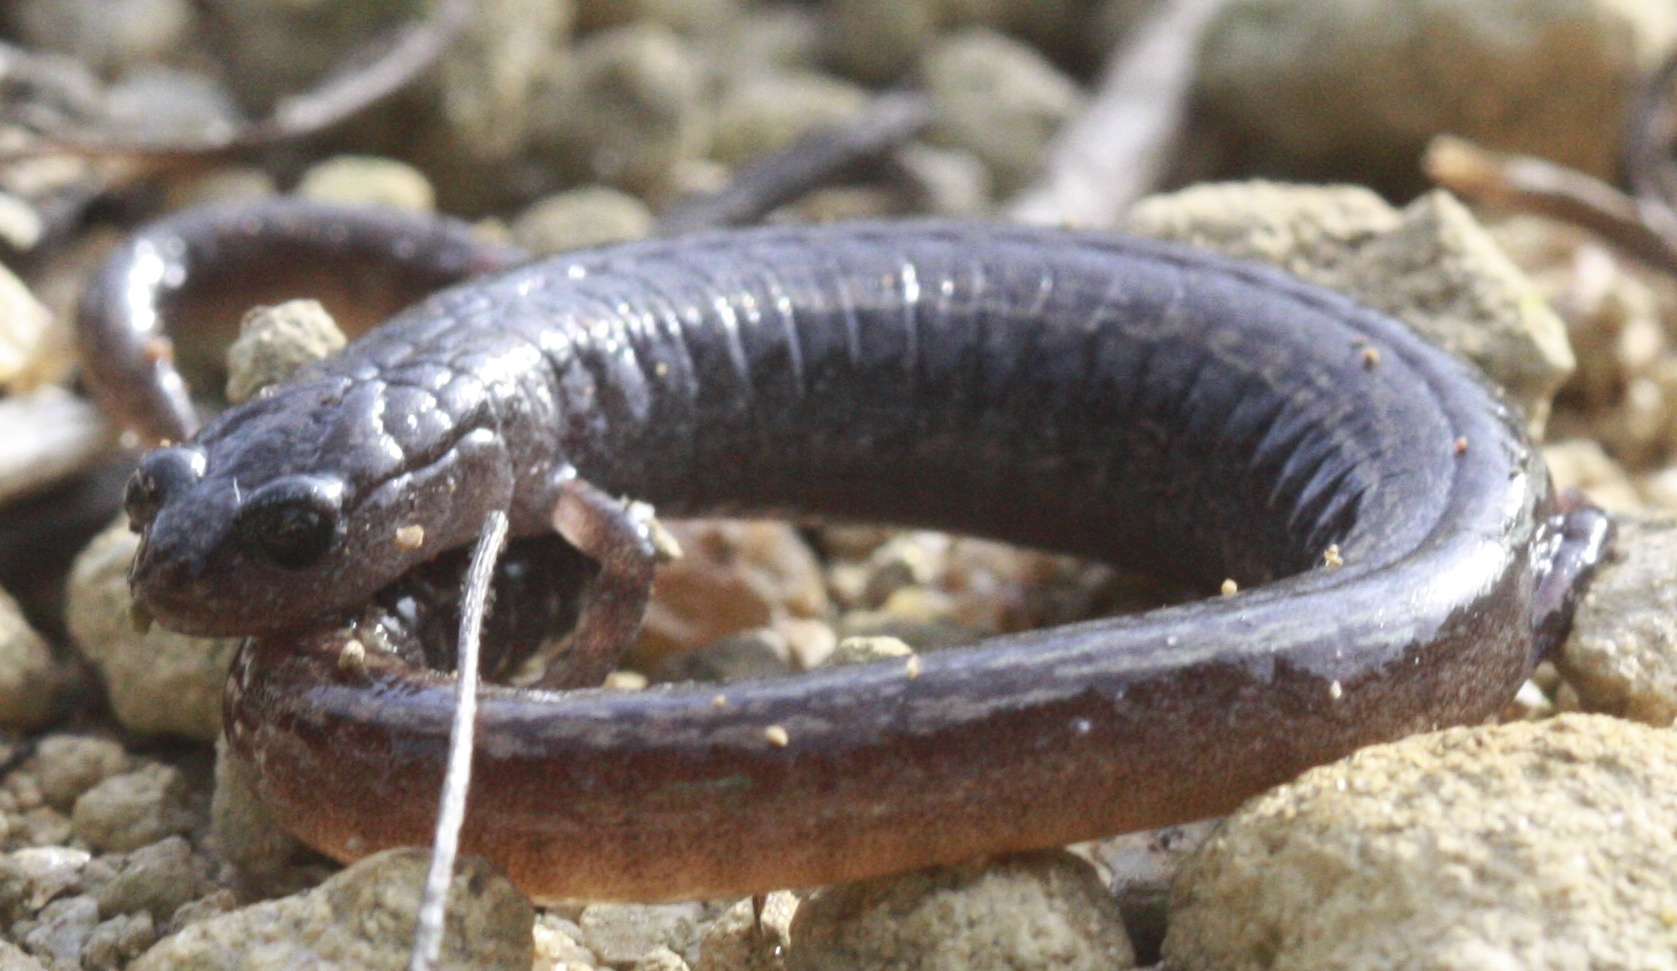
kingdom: Animalia
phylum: Chordata
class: Amphibia
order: Caudata
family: Plethodontidae
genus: Batrachoseps
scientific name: Batrachoseps attenuatus
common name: California slender salamander
